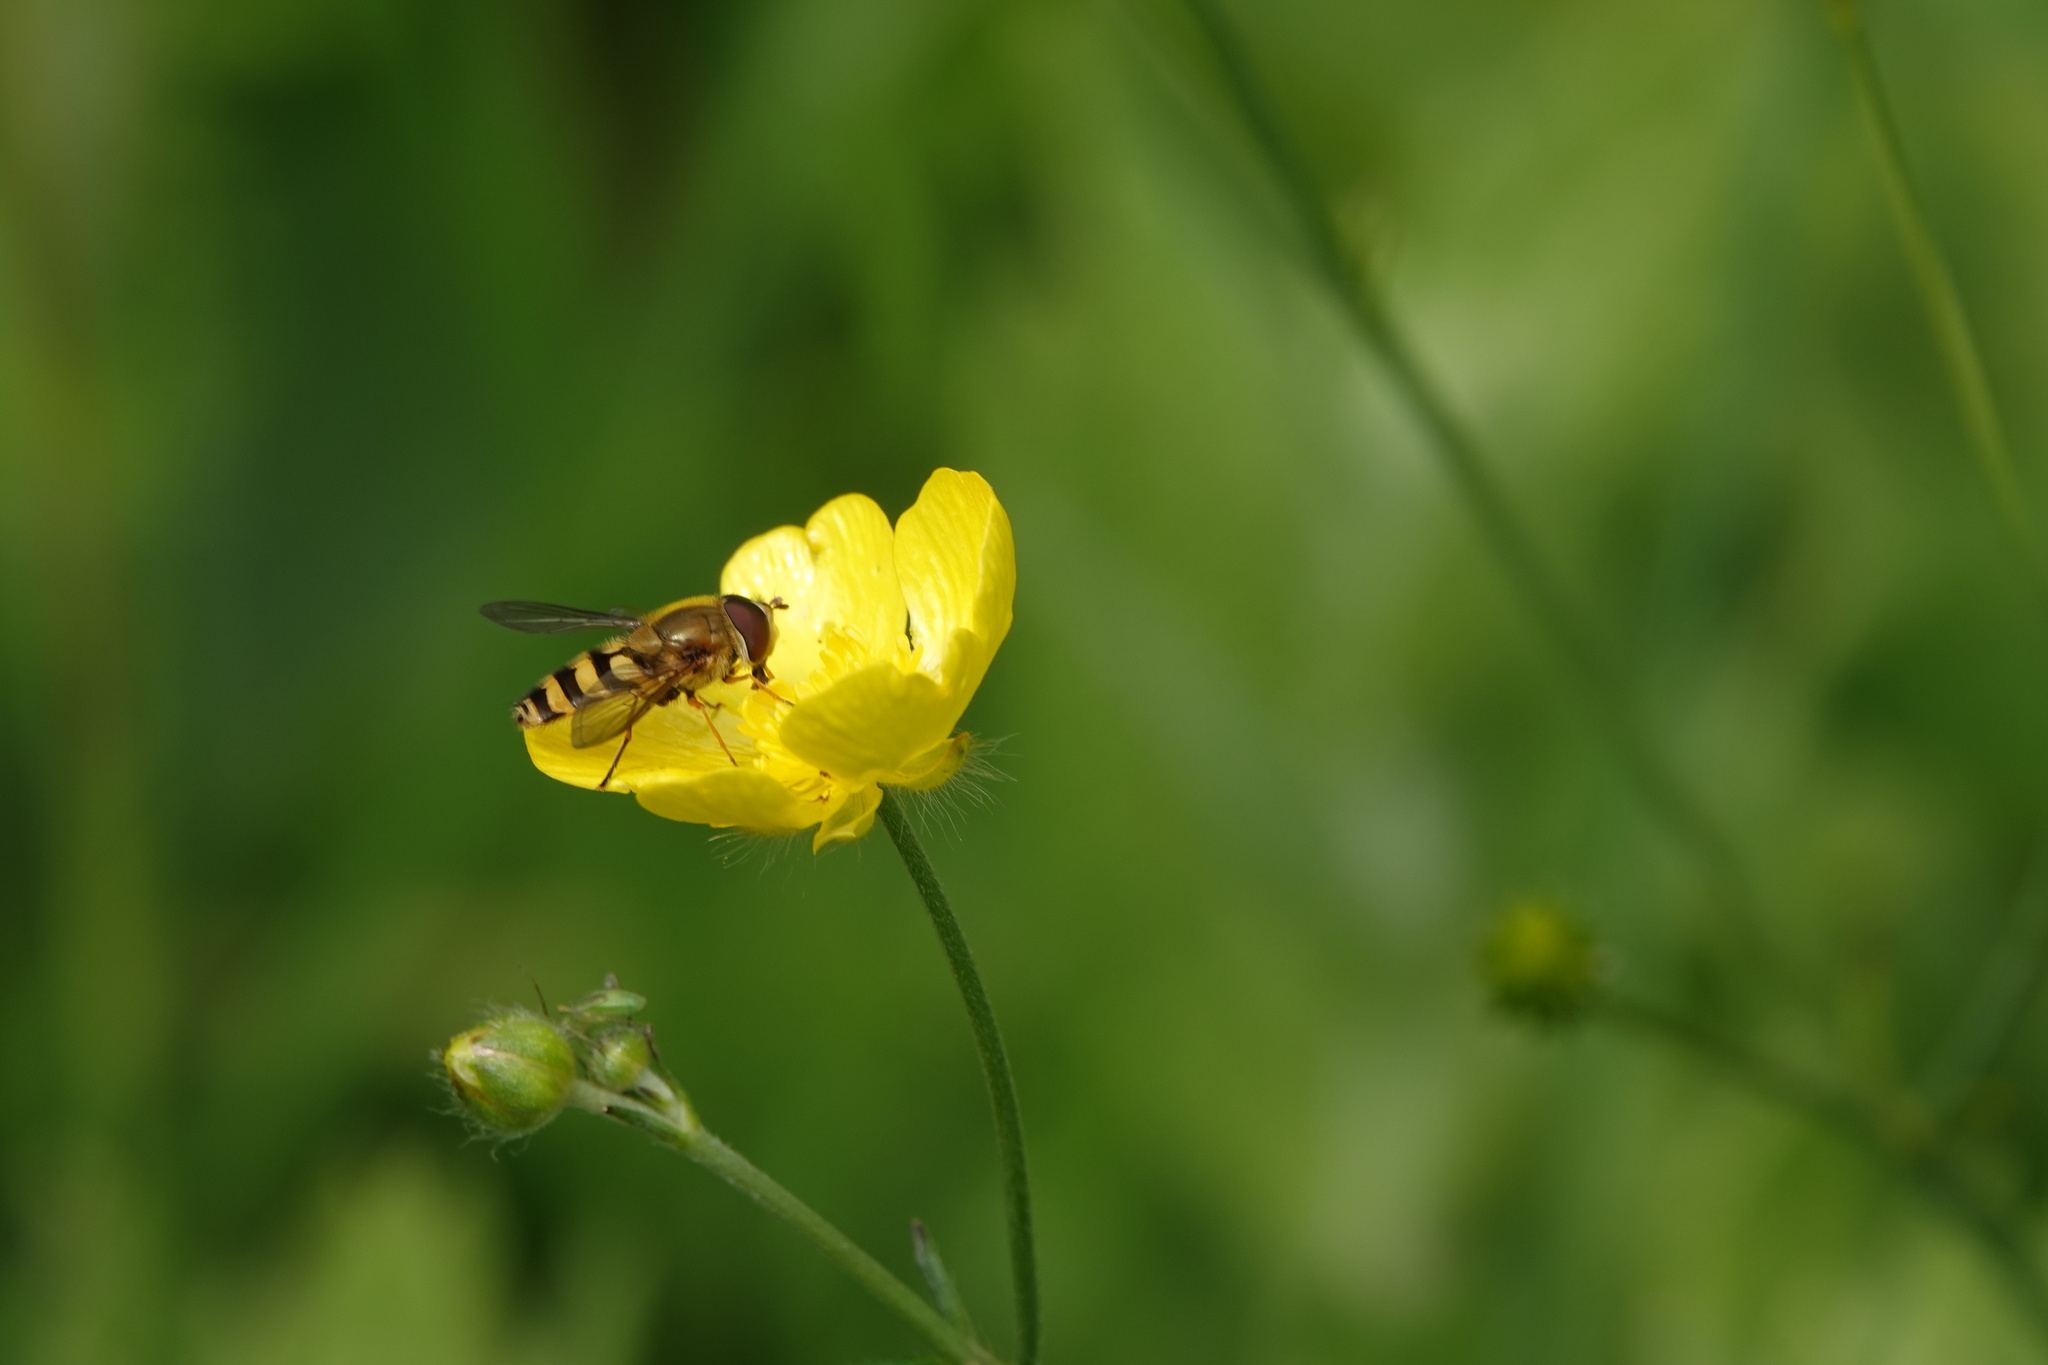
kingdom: Animalia
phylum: Arthropoda
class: Insecta
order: Diptera
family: Syrphidae
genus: Syrphus
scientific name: Syrphus
